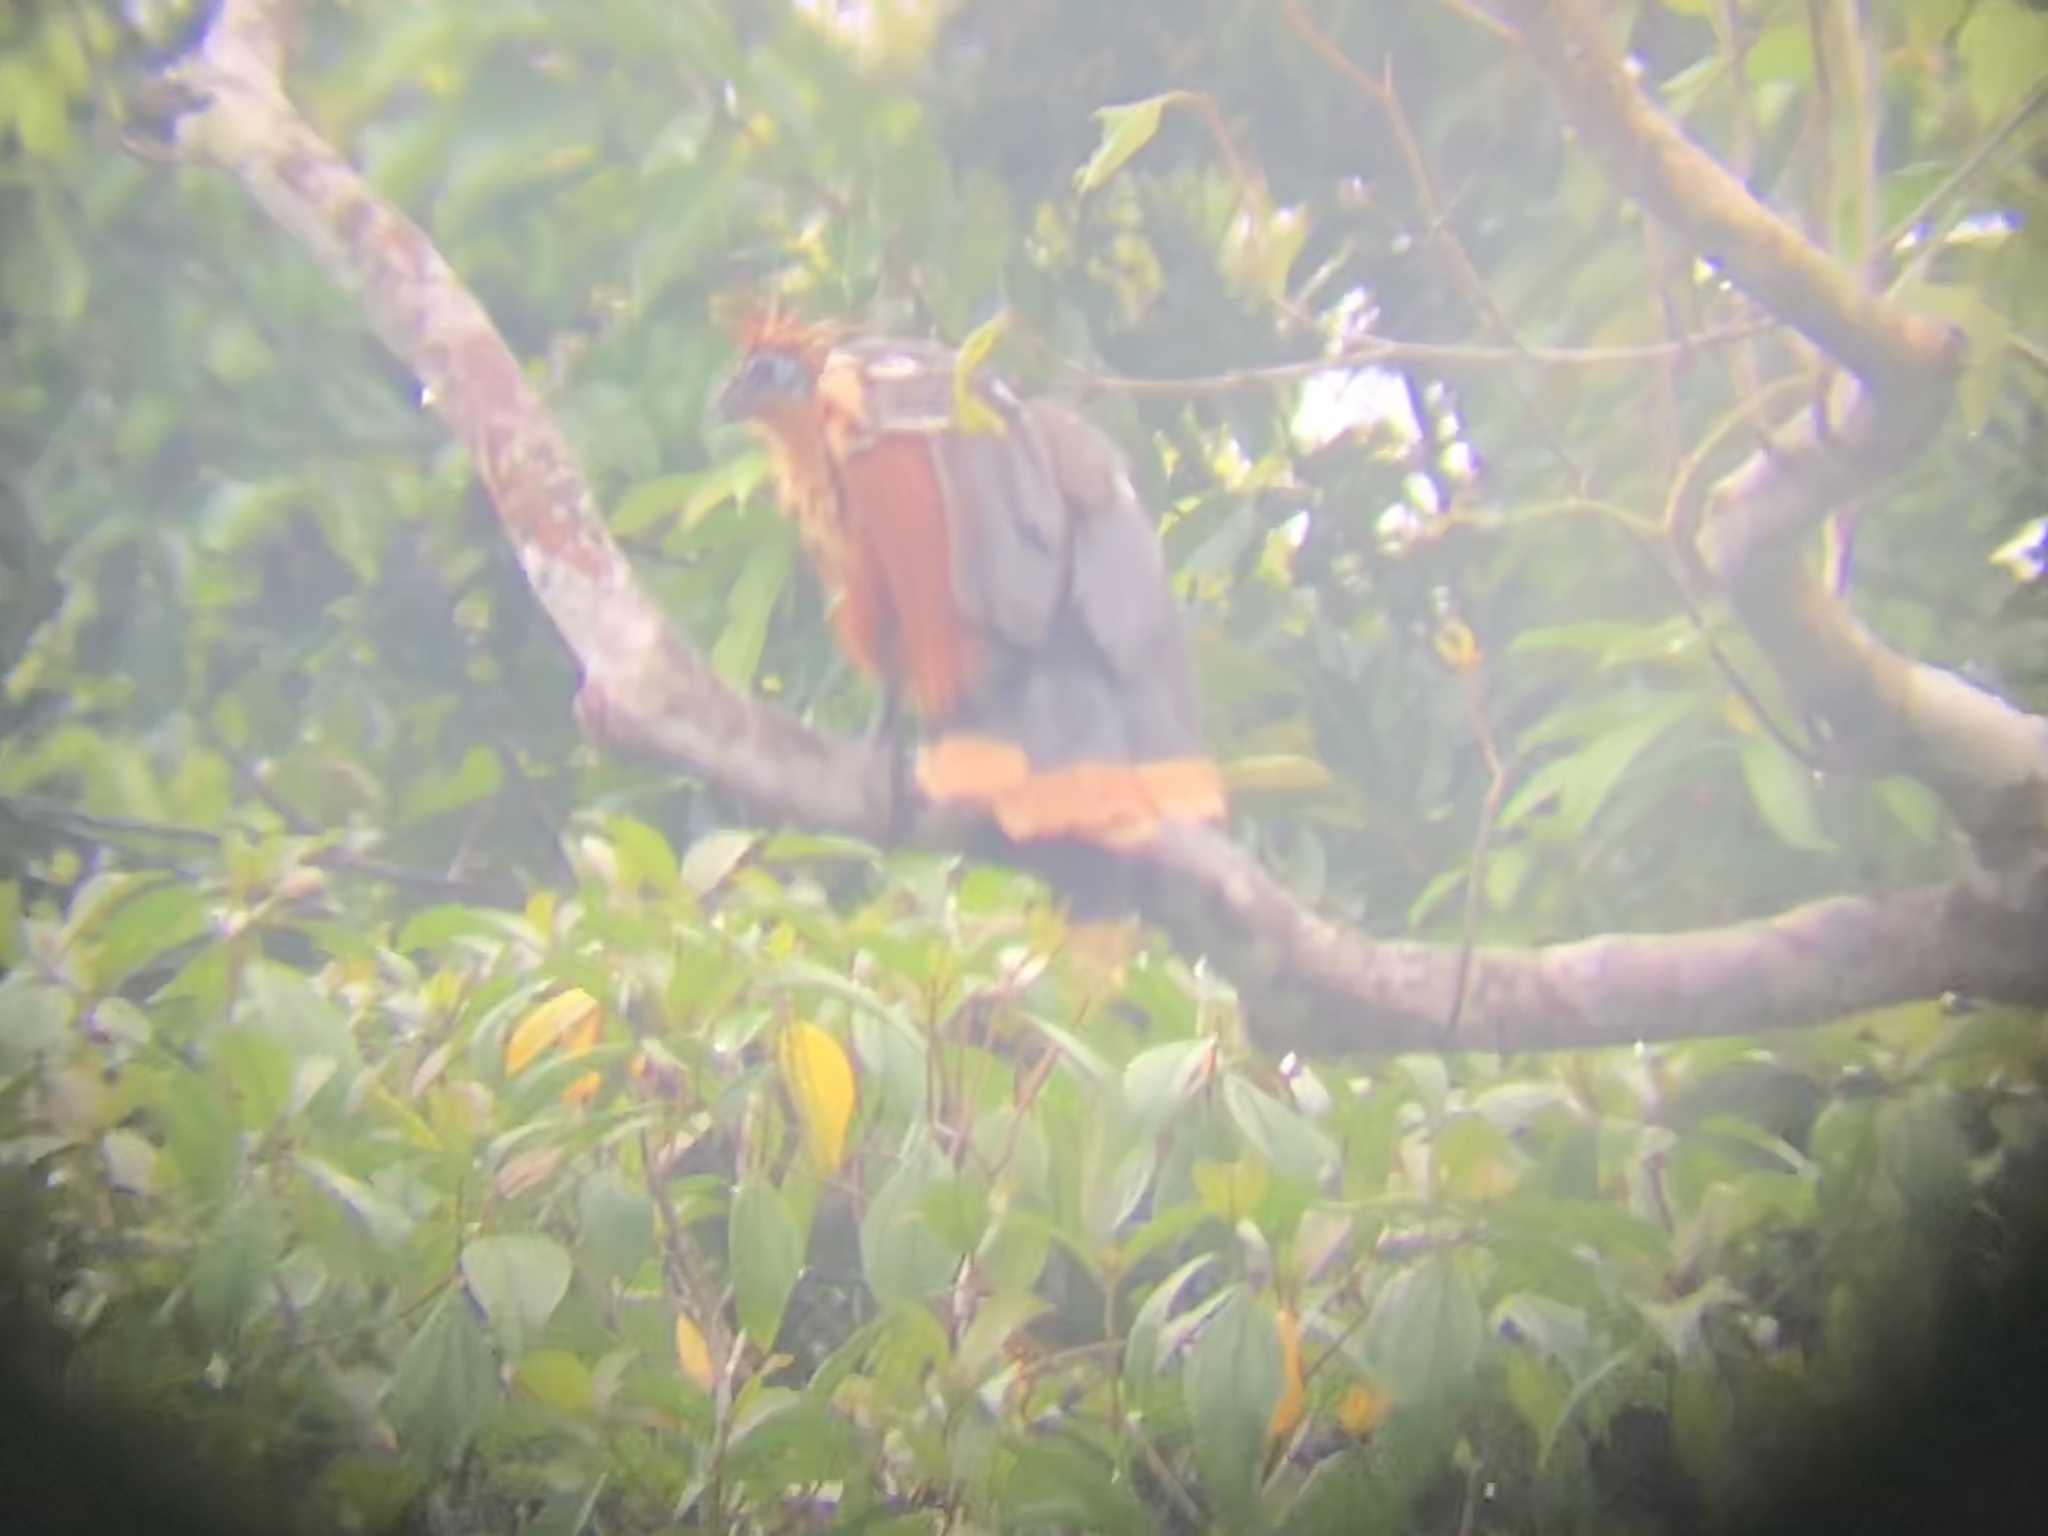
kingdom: Animalia
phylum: Chordata
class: Aves
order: Opisthocomiformes
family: Opisthocomidae
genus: Opisthocomus
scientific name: Opisthocomus hoazin
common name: Hoatzin
